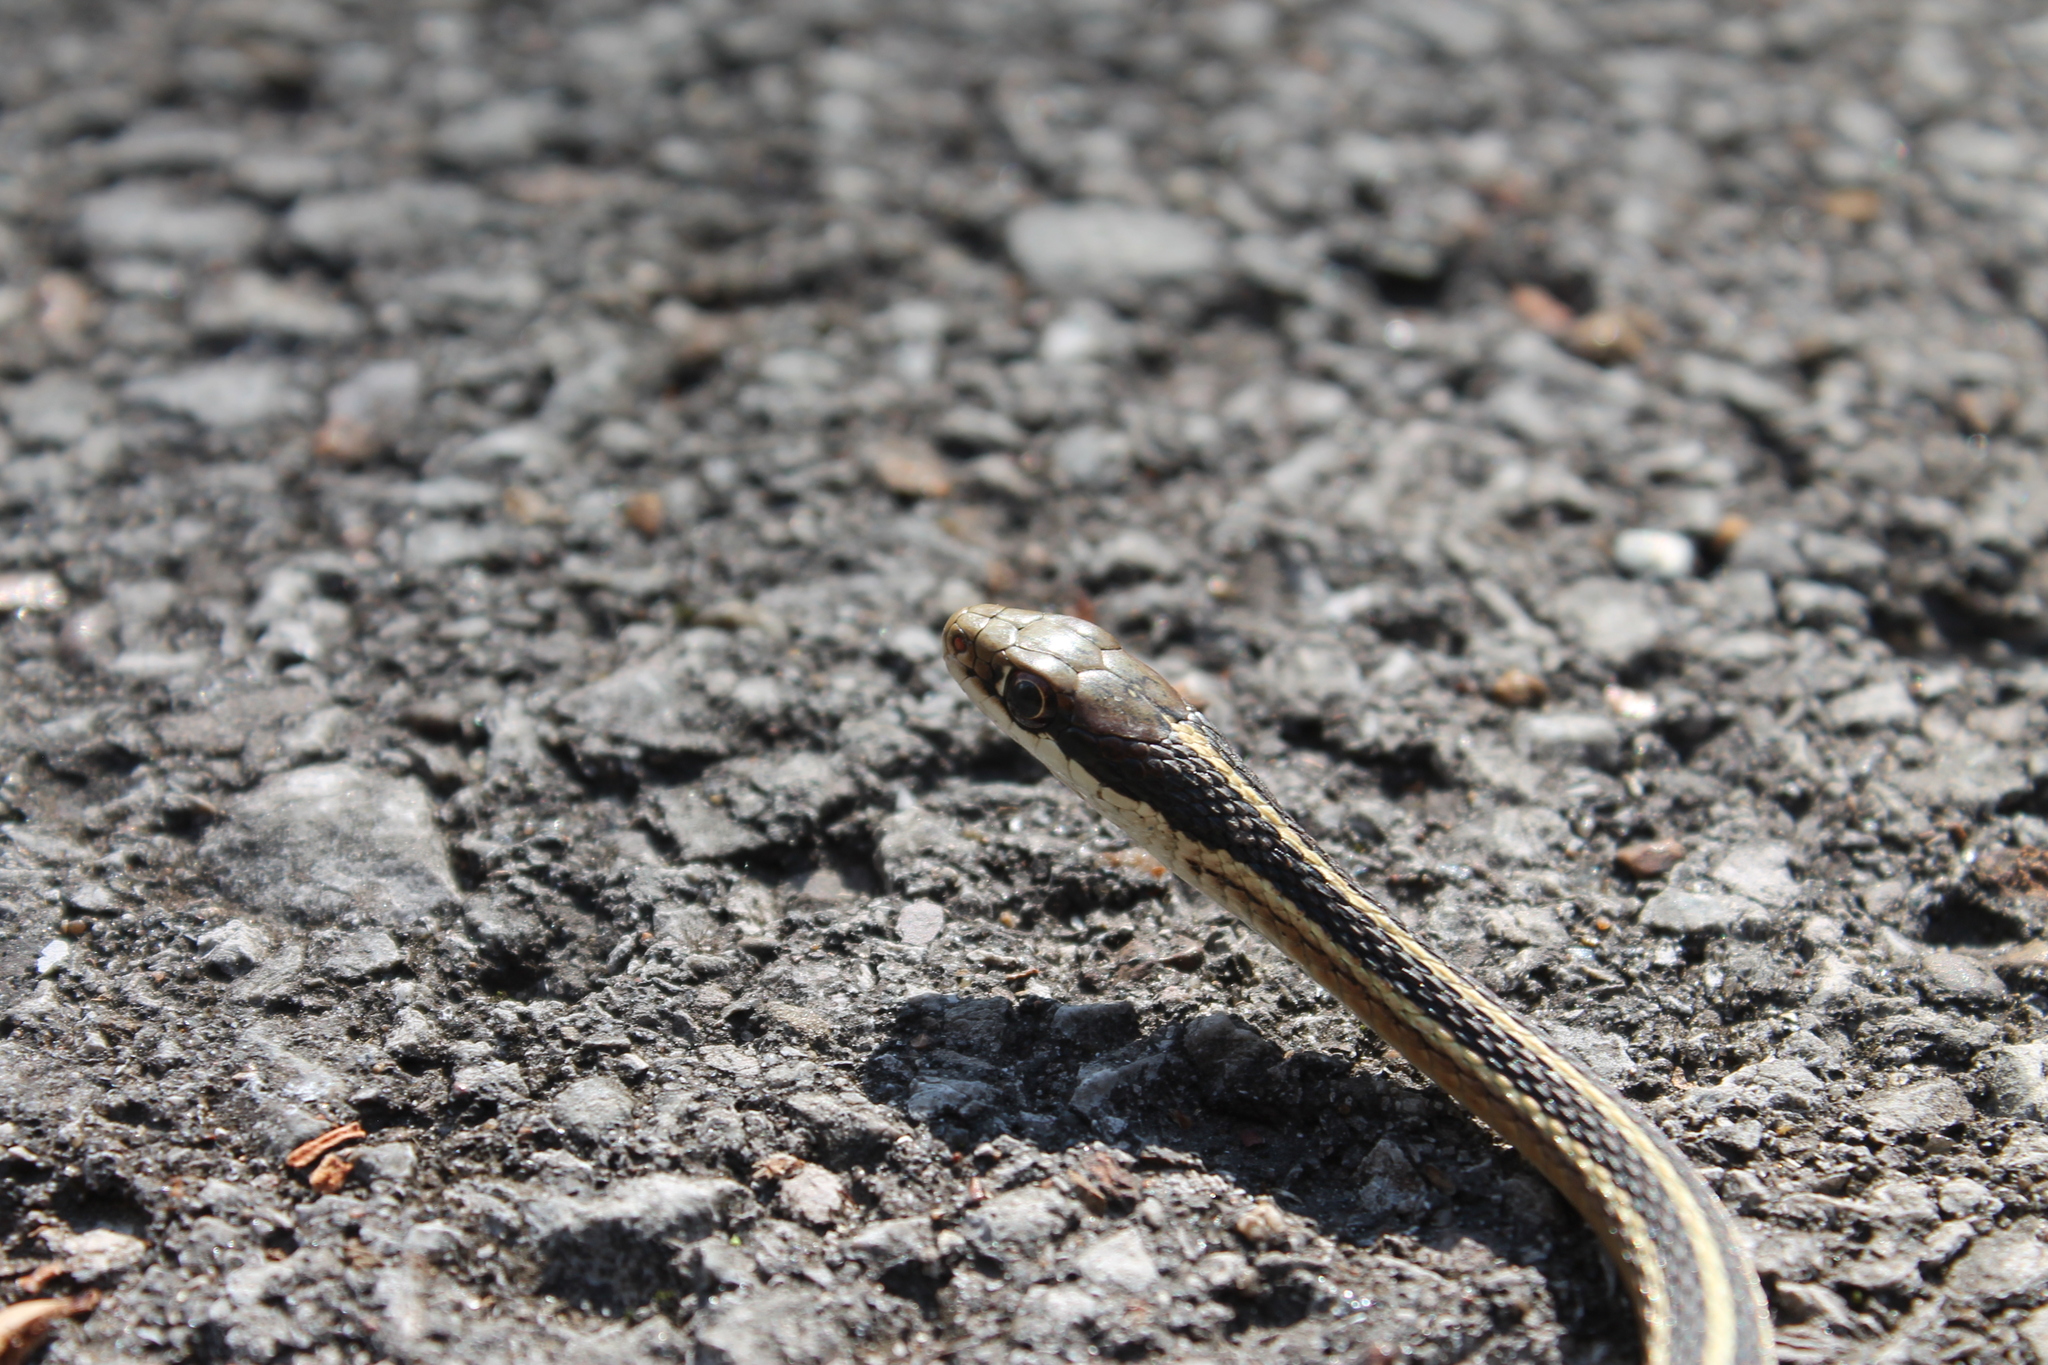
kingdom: Animalia
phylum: Chordata
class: Squamata
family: Colubridae
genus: Thamnophis
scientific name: Thamnophis saurita
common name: Eastern ribbonsnake
